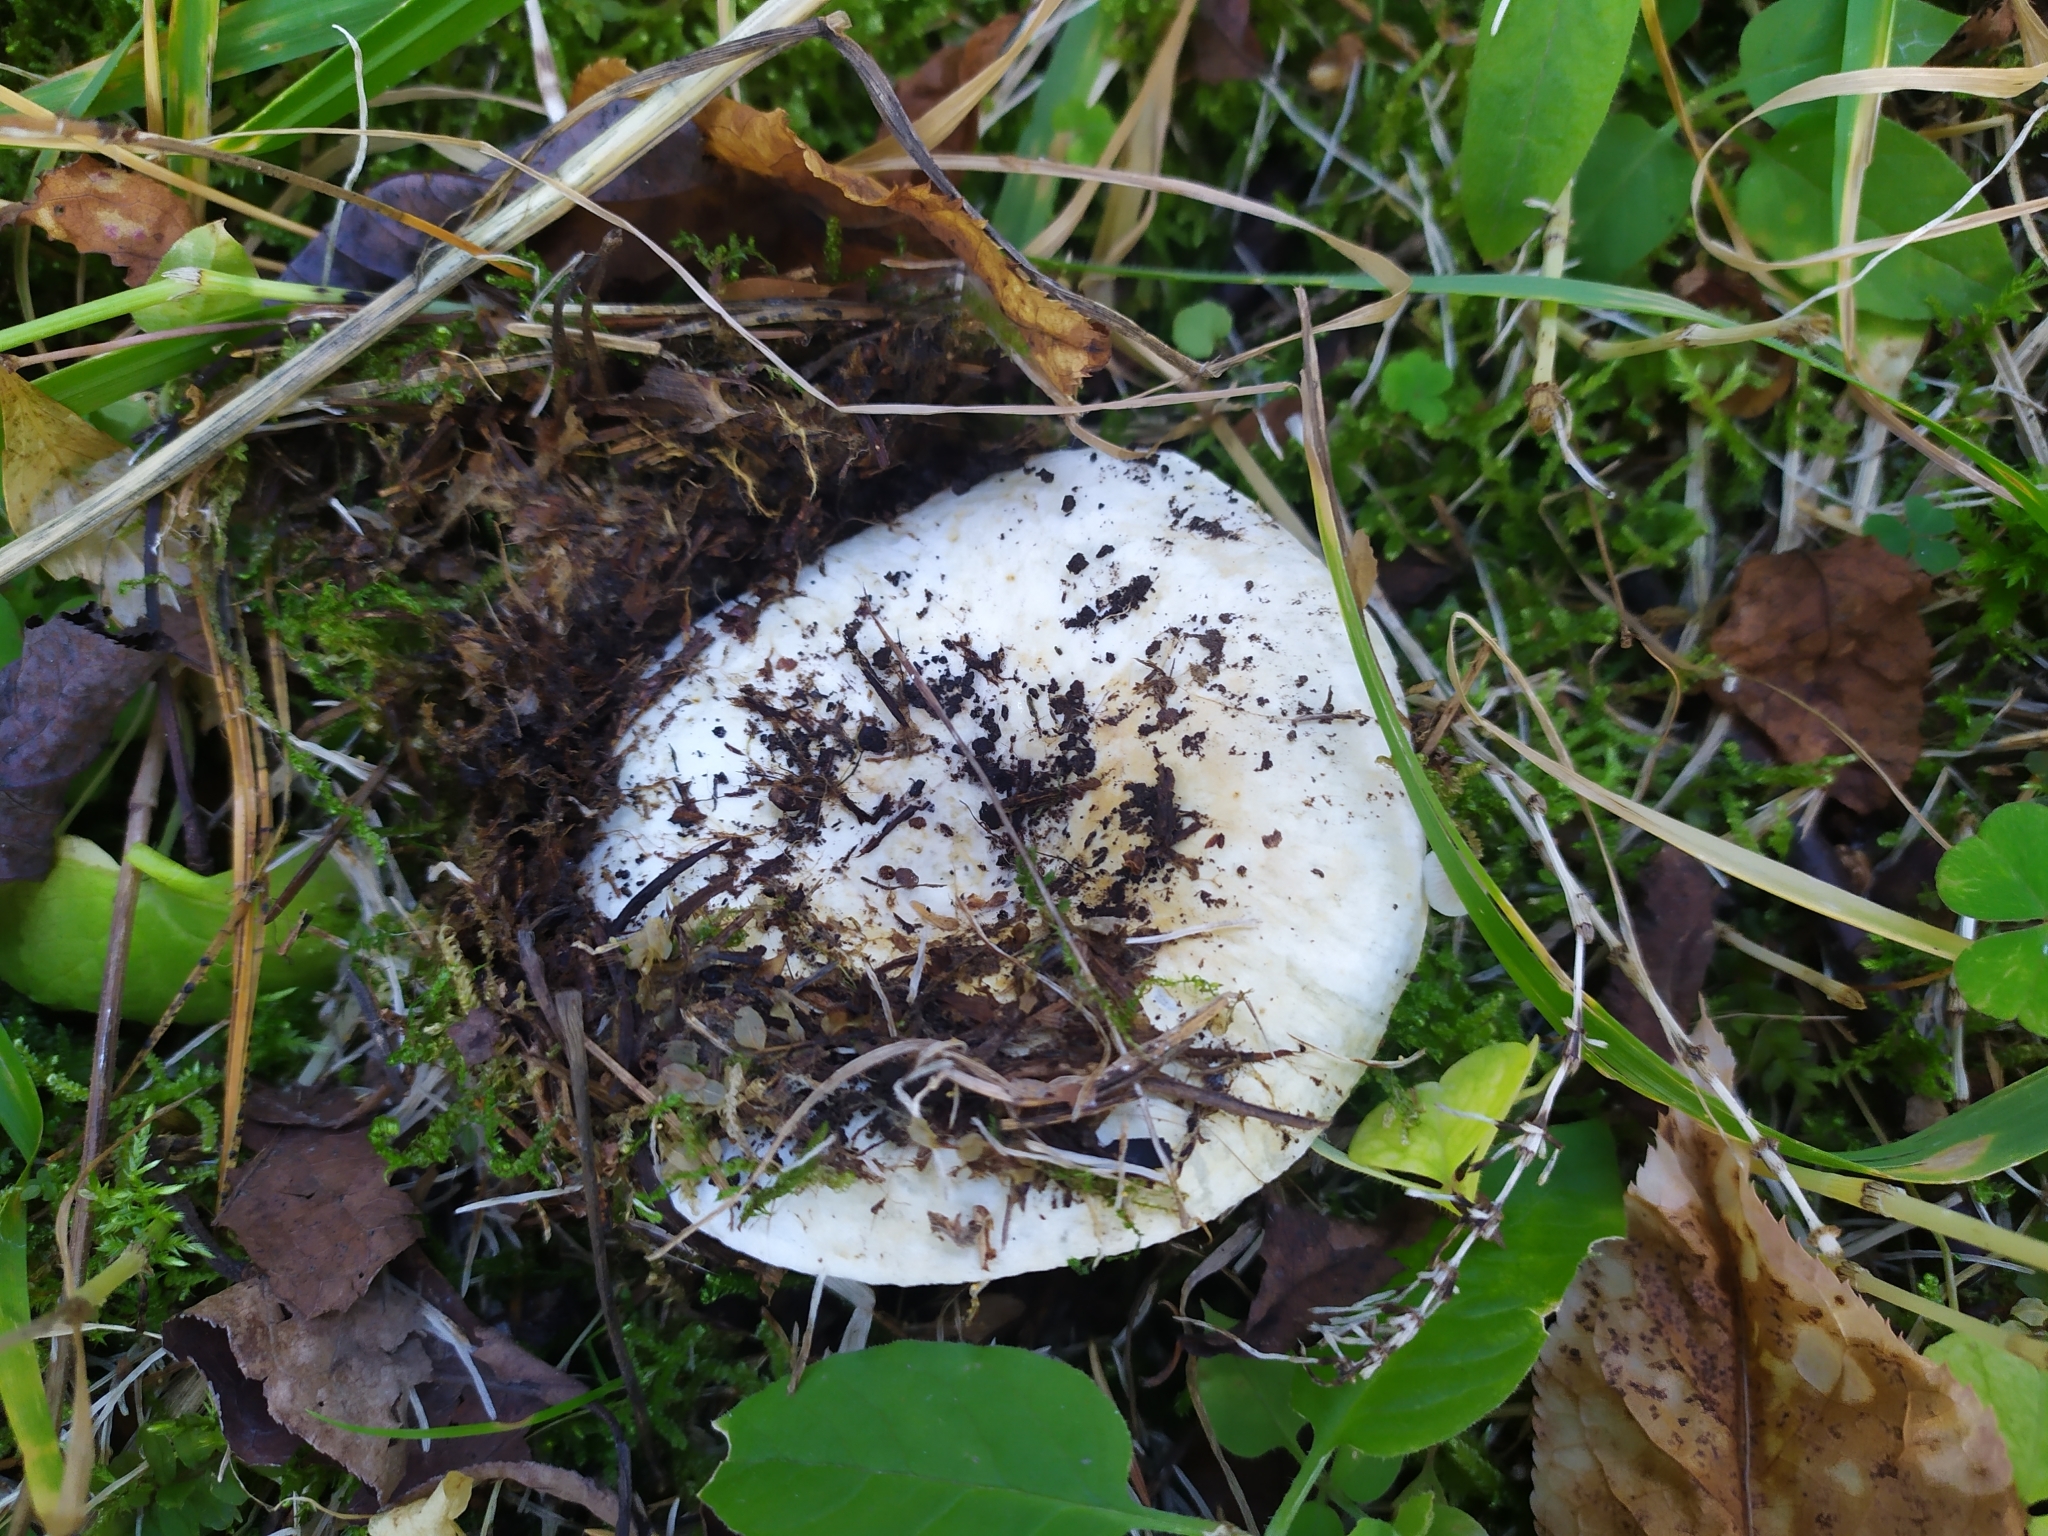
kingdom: Fungi
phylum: Basidiomycota
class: Agaricomycetes
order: Russulales
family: Russulaceae
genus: Russula
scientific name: Russula delica
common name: Milk white brittlegill
